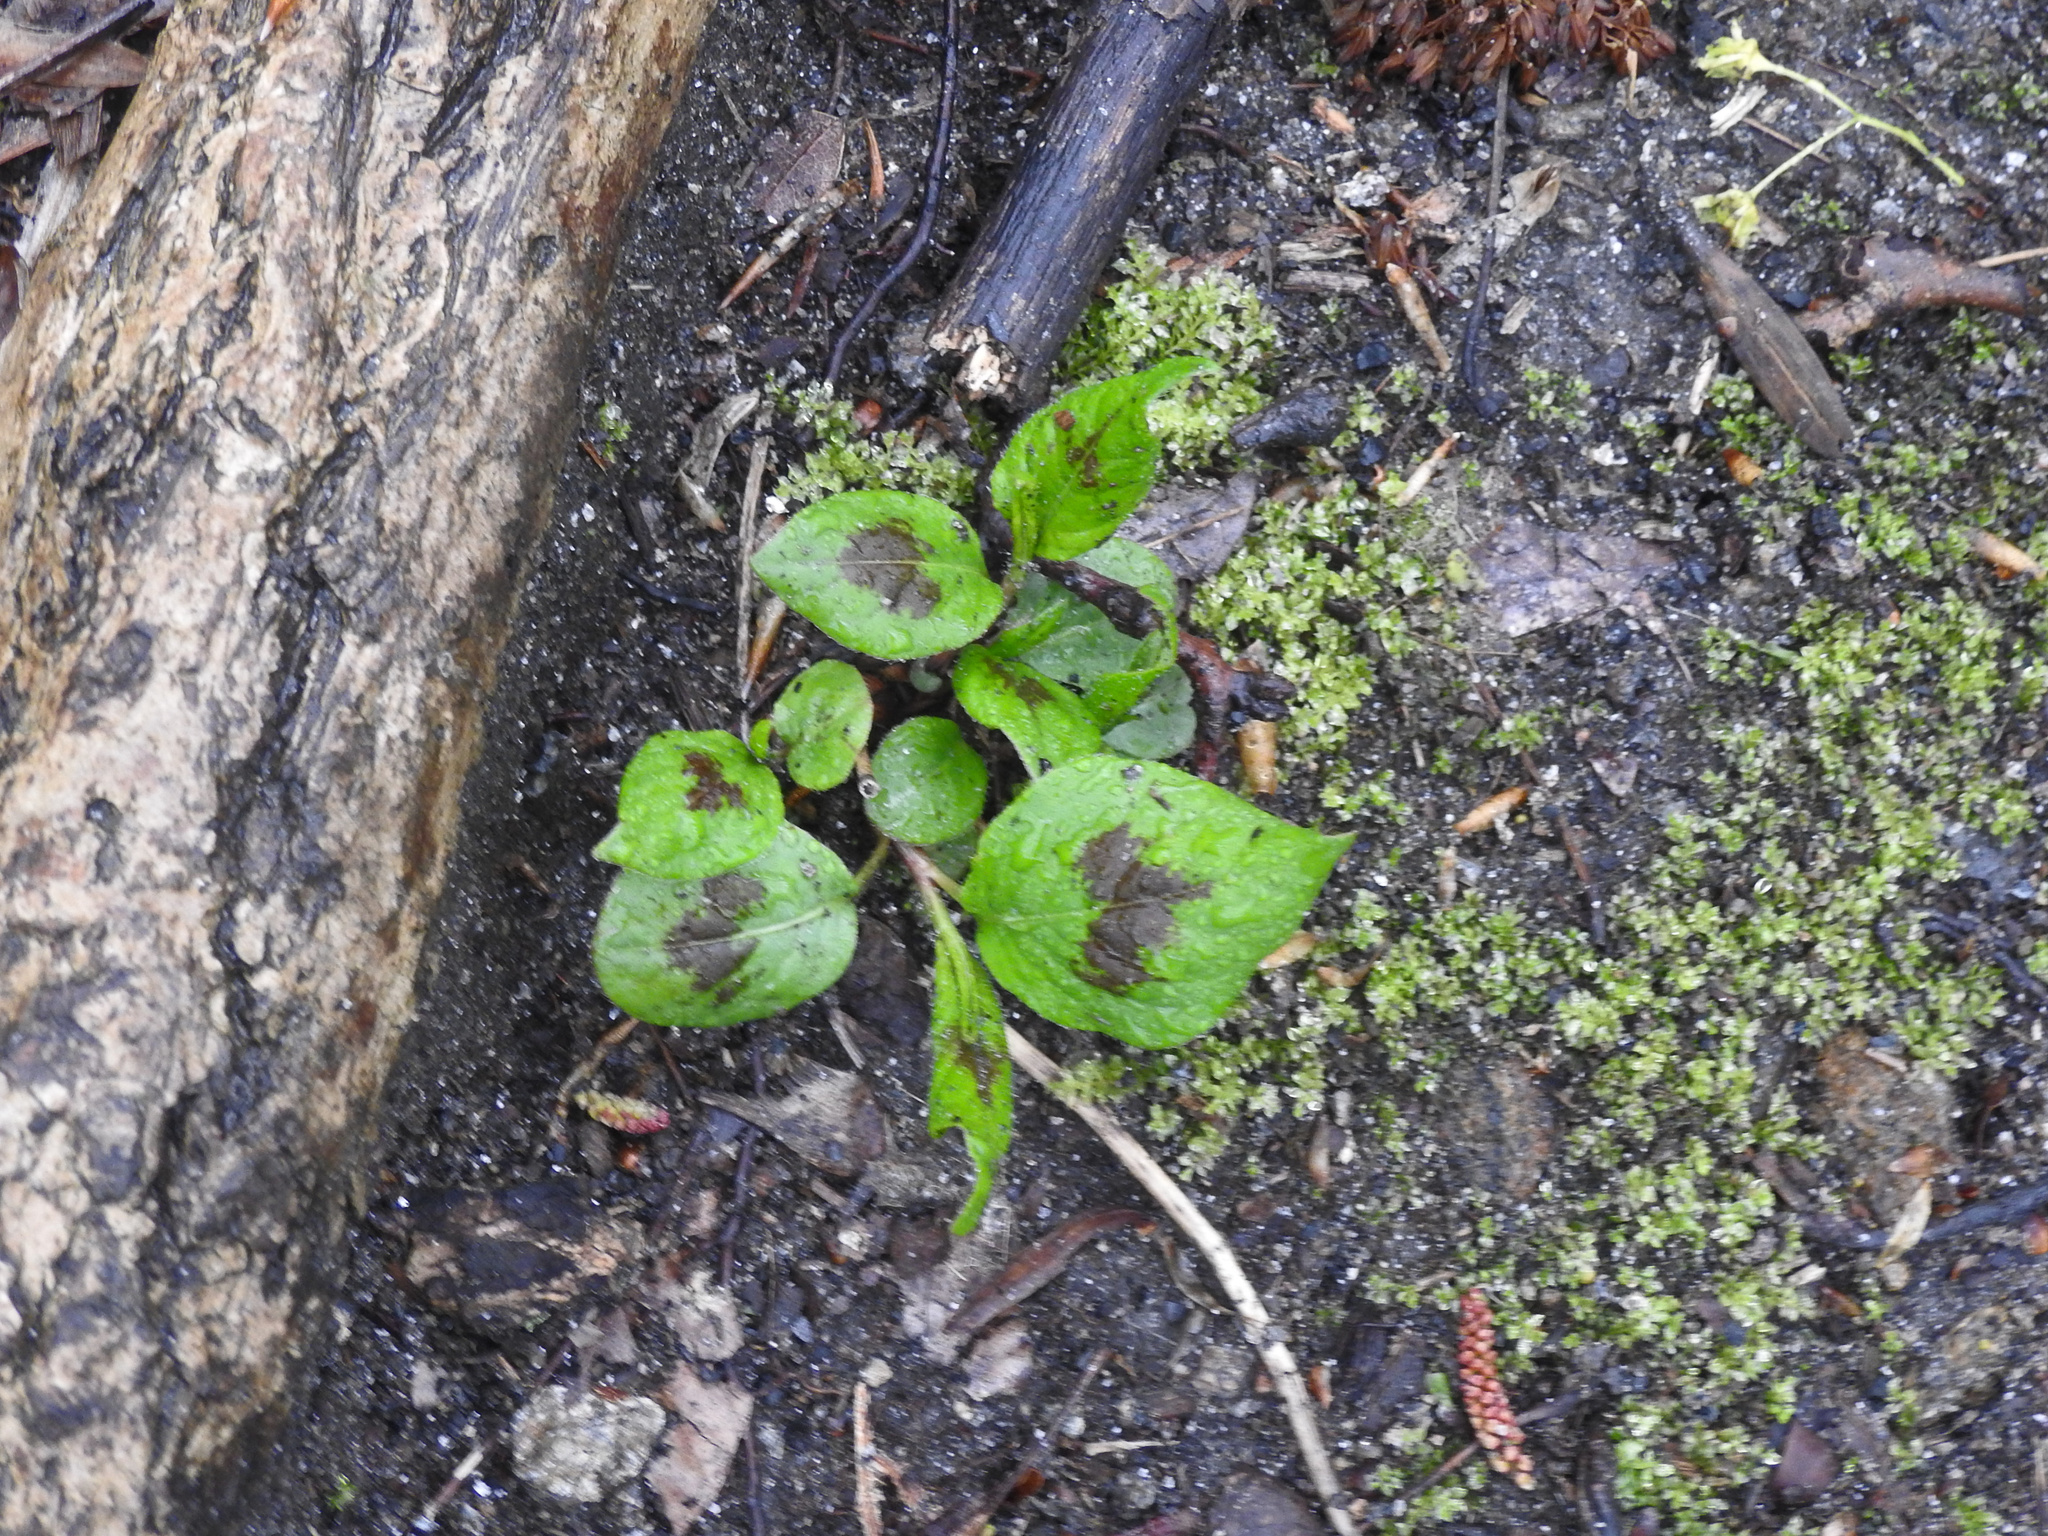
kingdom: Plantae
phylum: Tracheophyta
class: Magnoliopsida
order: Caryophyllales
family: Polygonaceae
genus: Persicaria
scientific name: Persicaria virginiana
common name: Jumpseed
